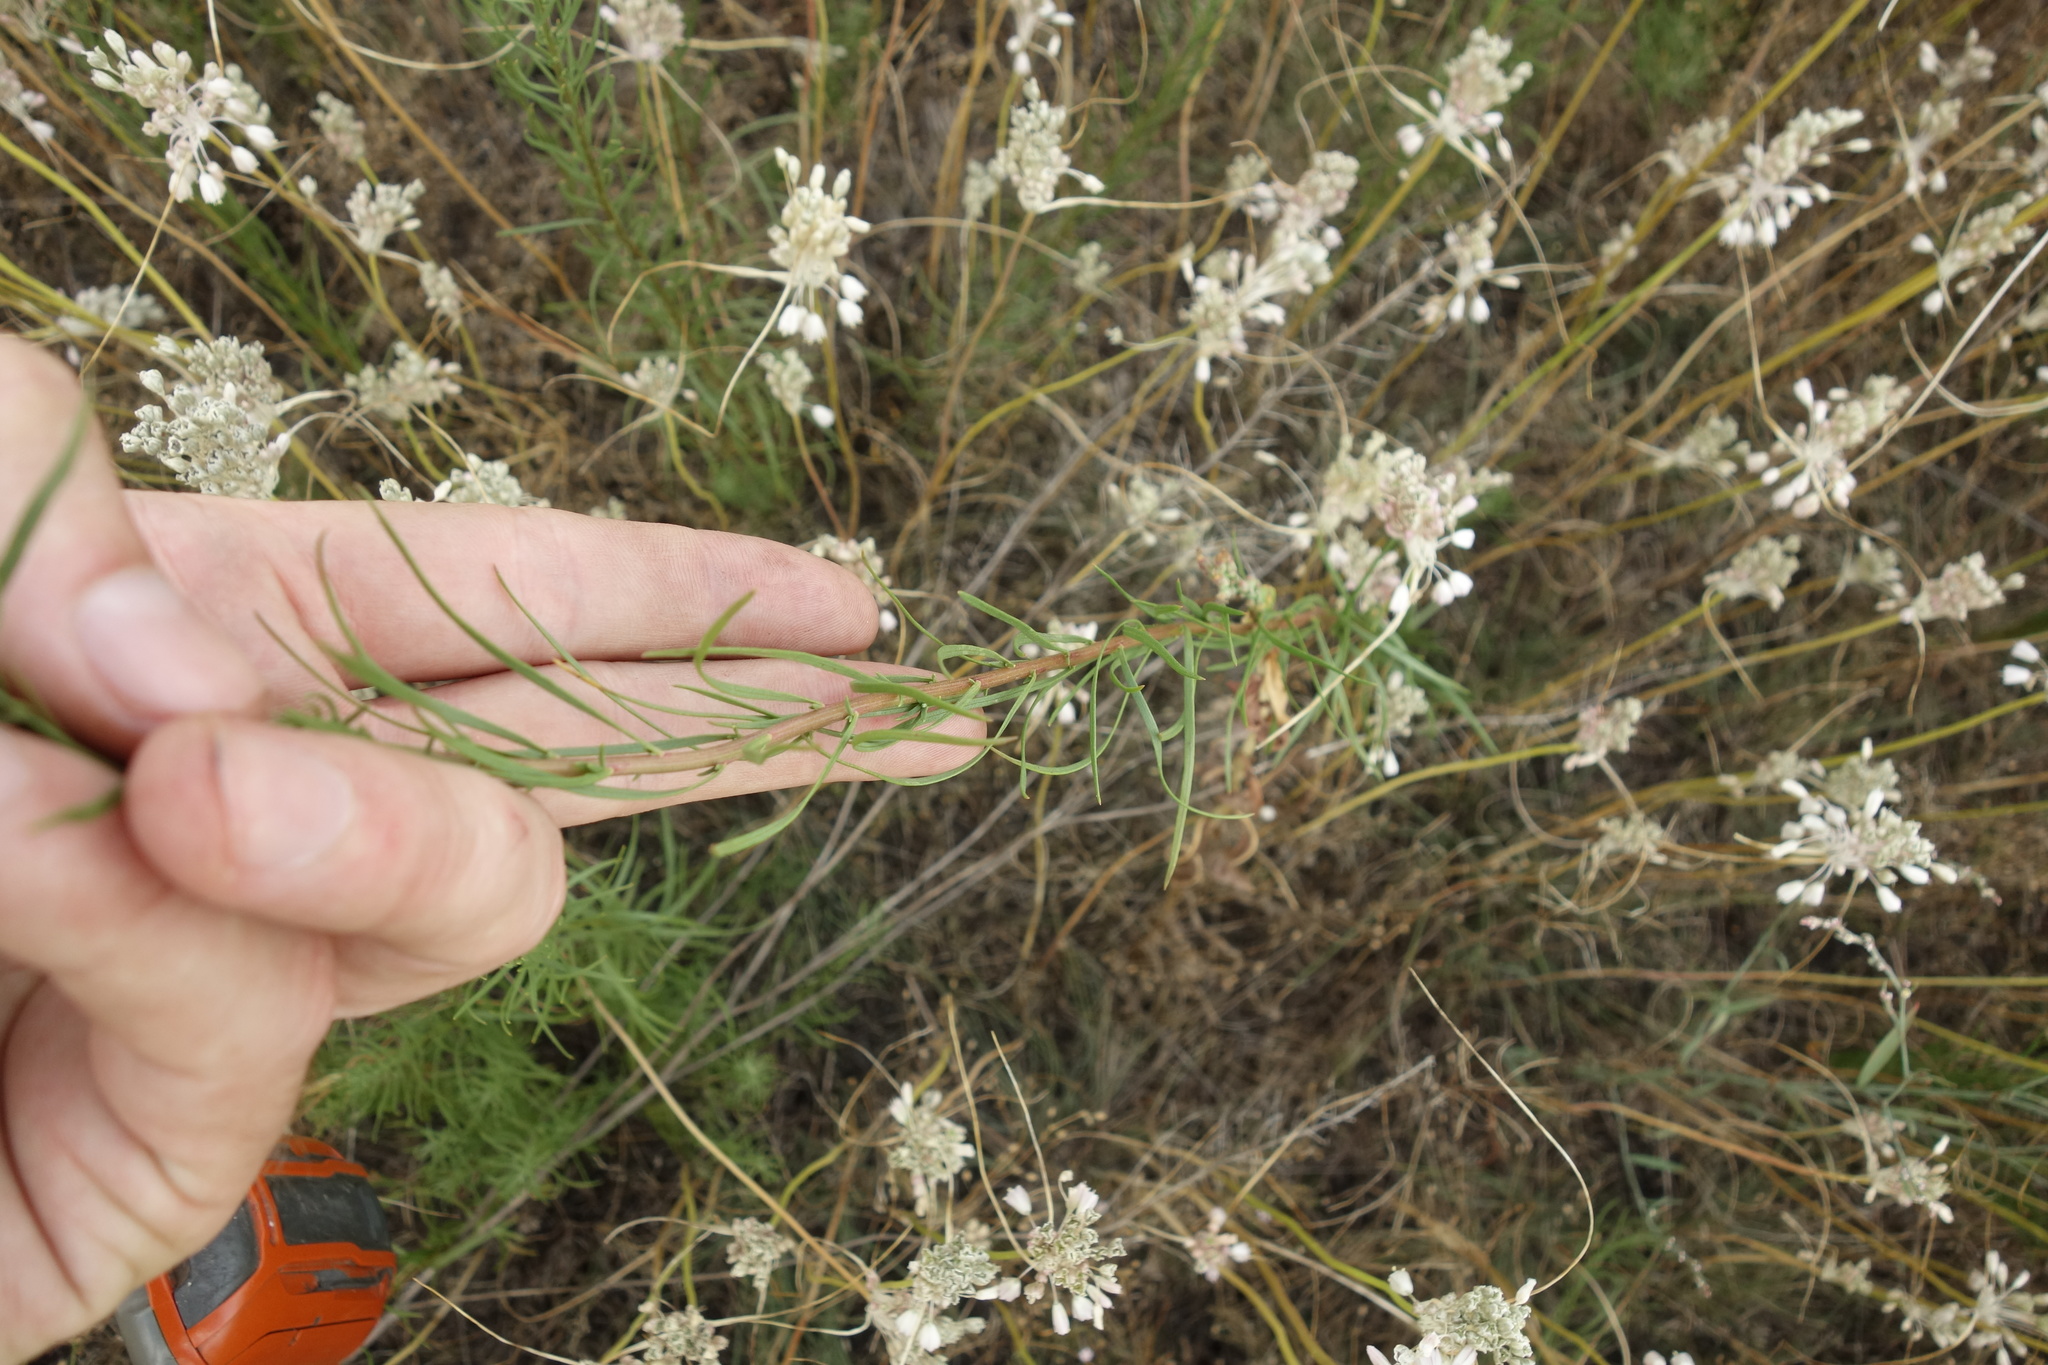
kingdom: Plantae
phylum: Tracheophyta
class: Magnoliopsida
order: Asterales
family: Asteraceae
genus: Galatella
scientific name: Galatella linosyris
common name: Goldilocks aster
